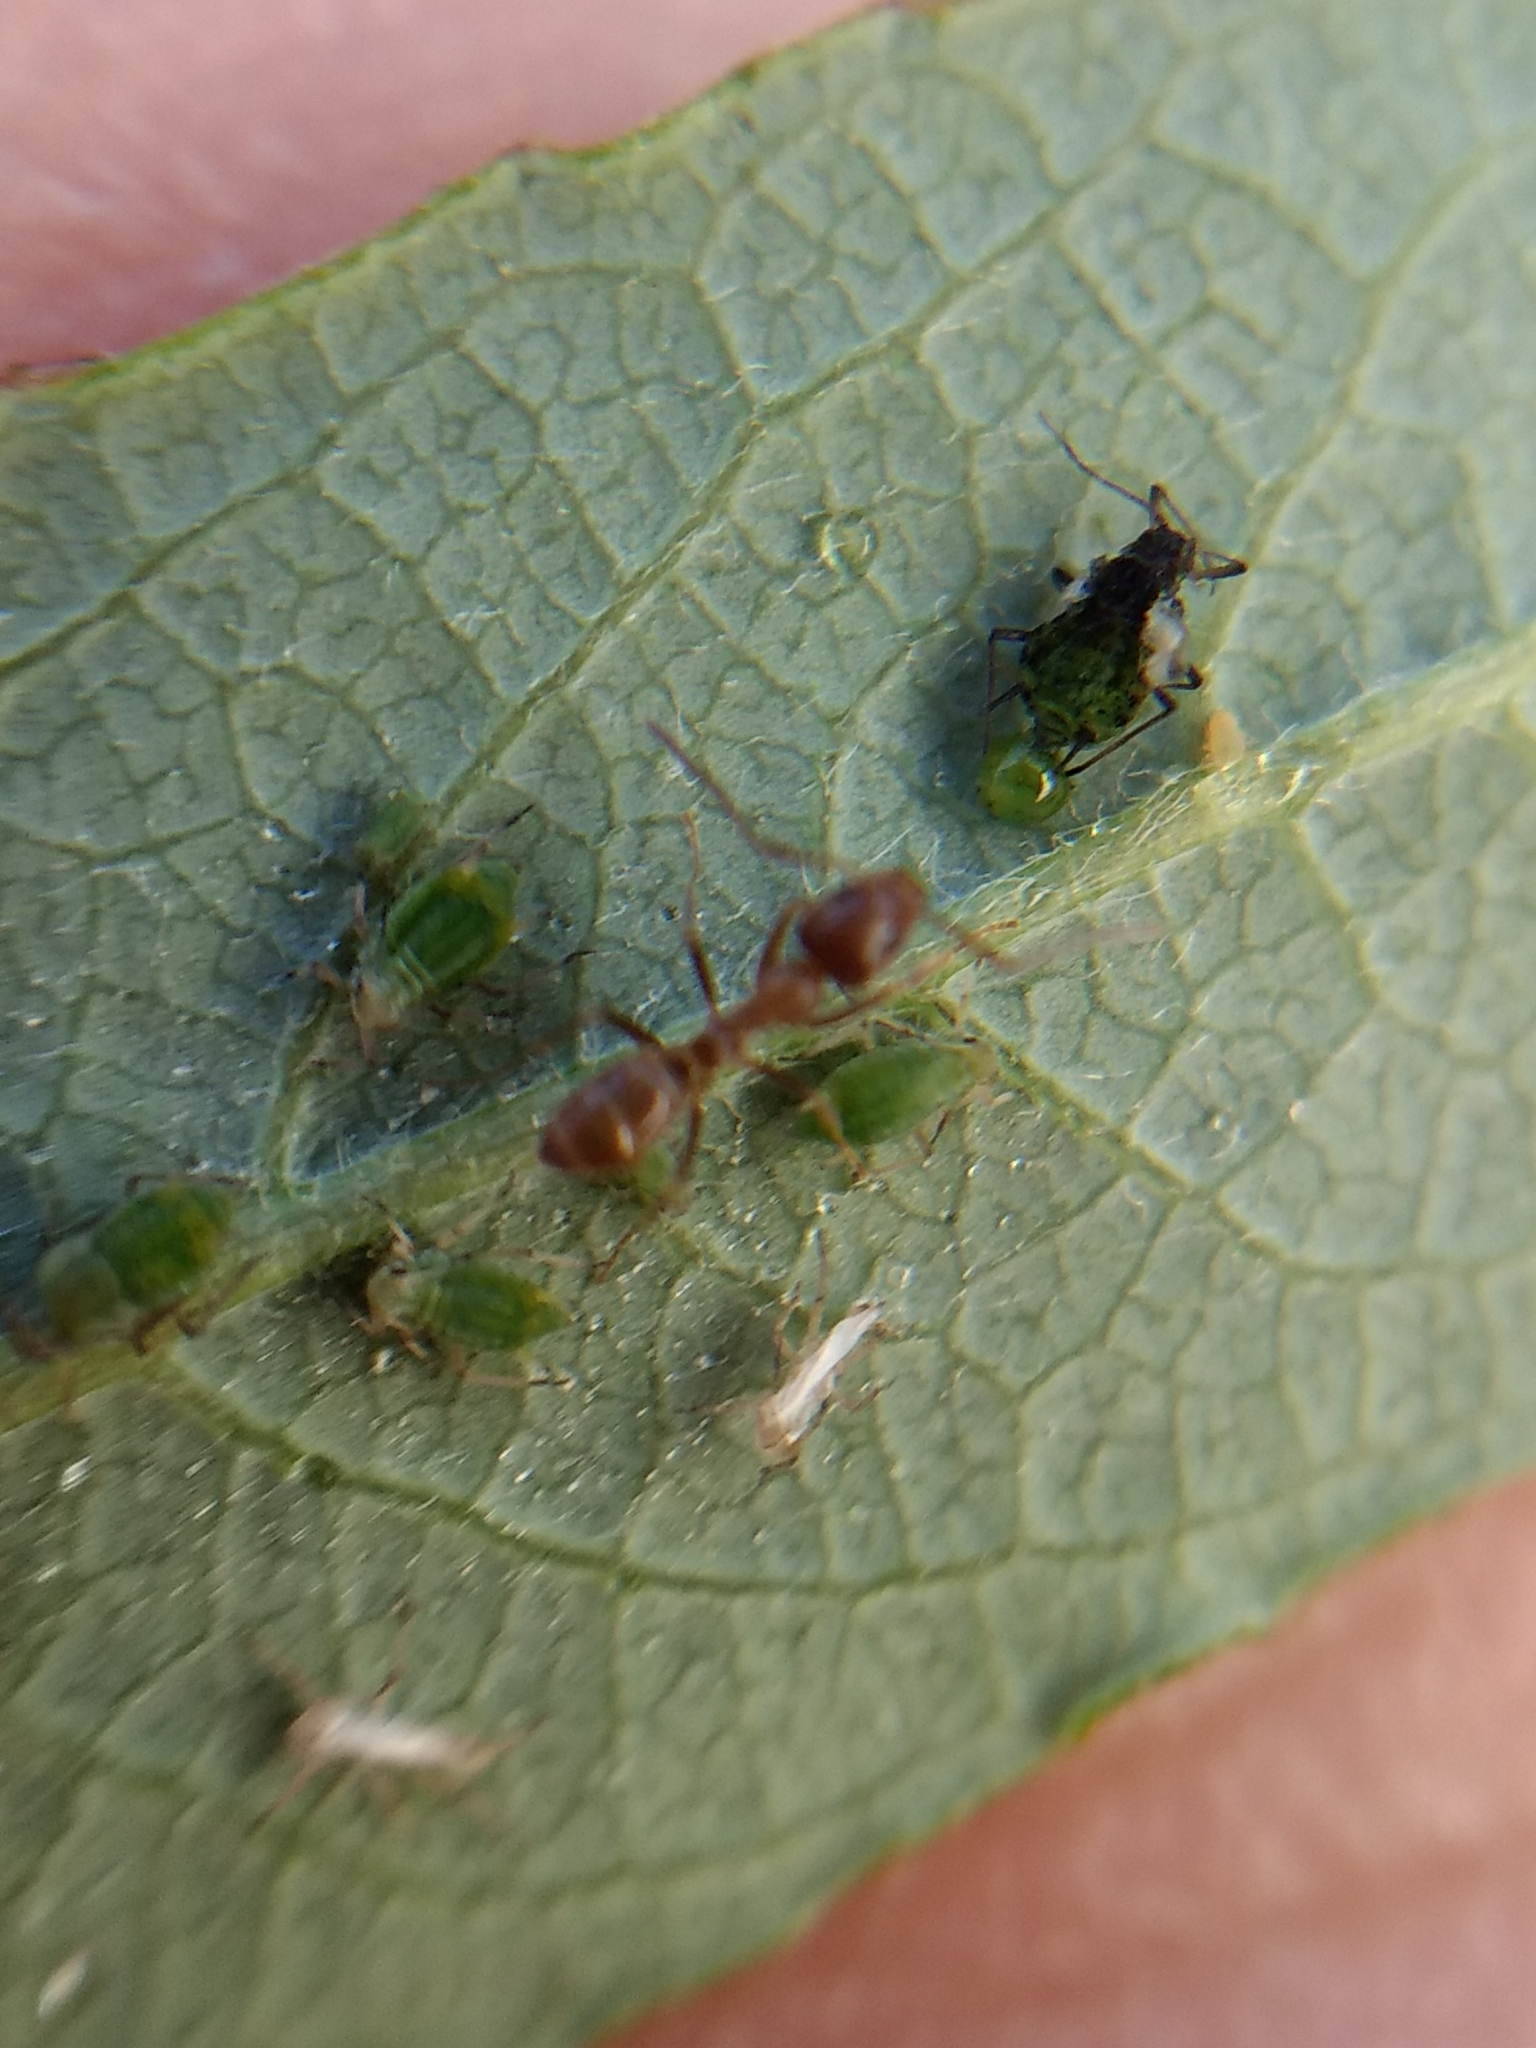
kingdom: Animalia
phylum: Arthropoda
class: Insecta
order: Hymenoptera
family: Formicidae
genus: Linepithema
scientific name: Linepithema humile
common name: Argentine ant
